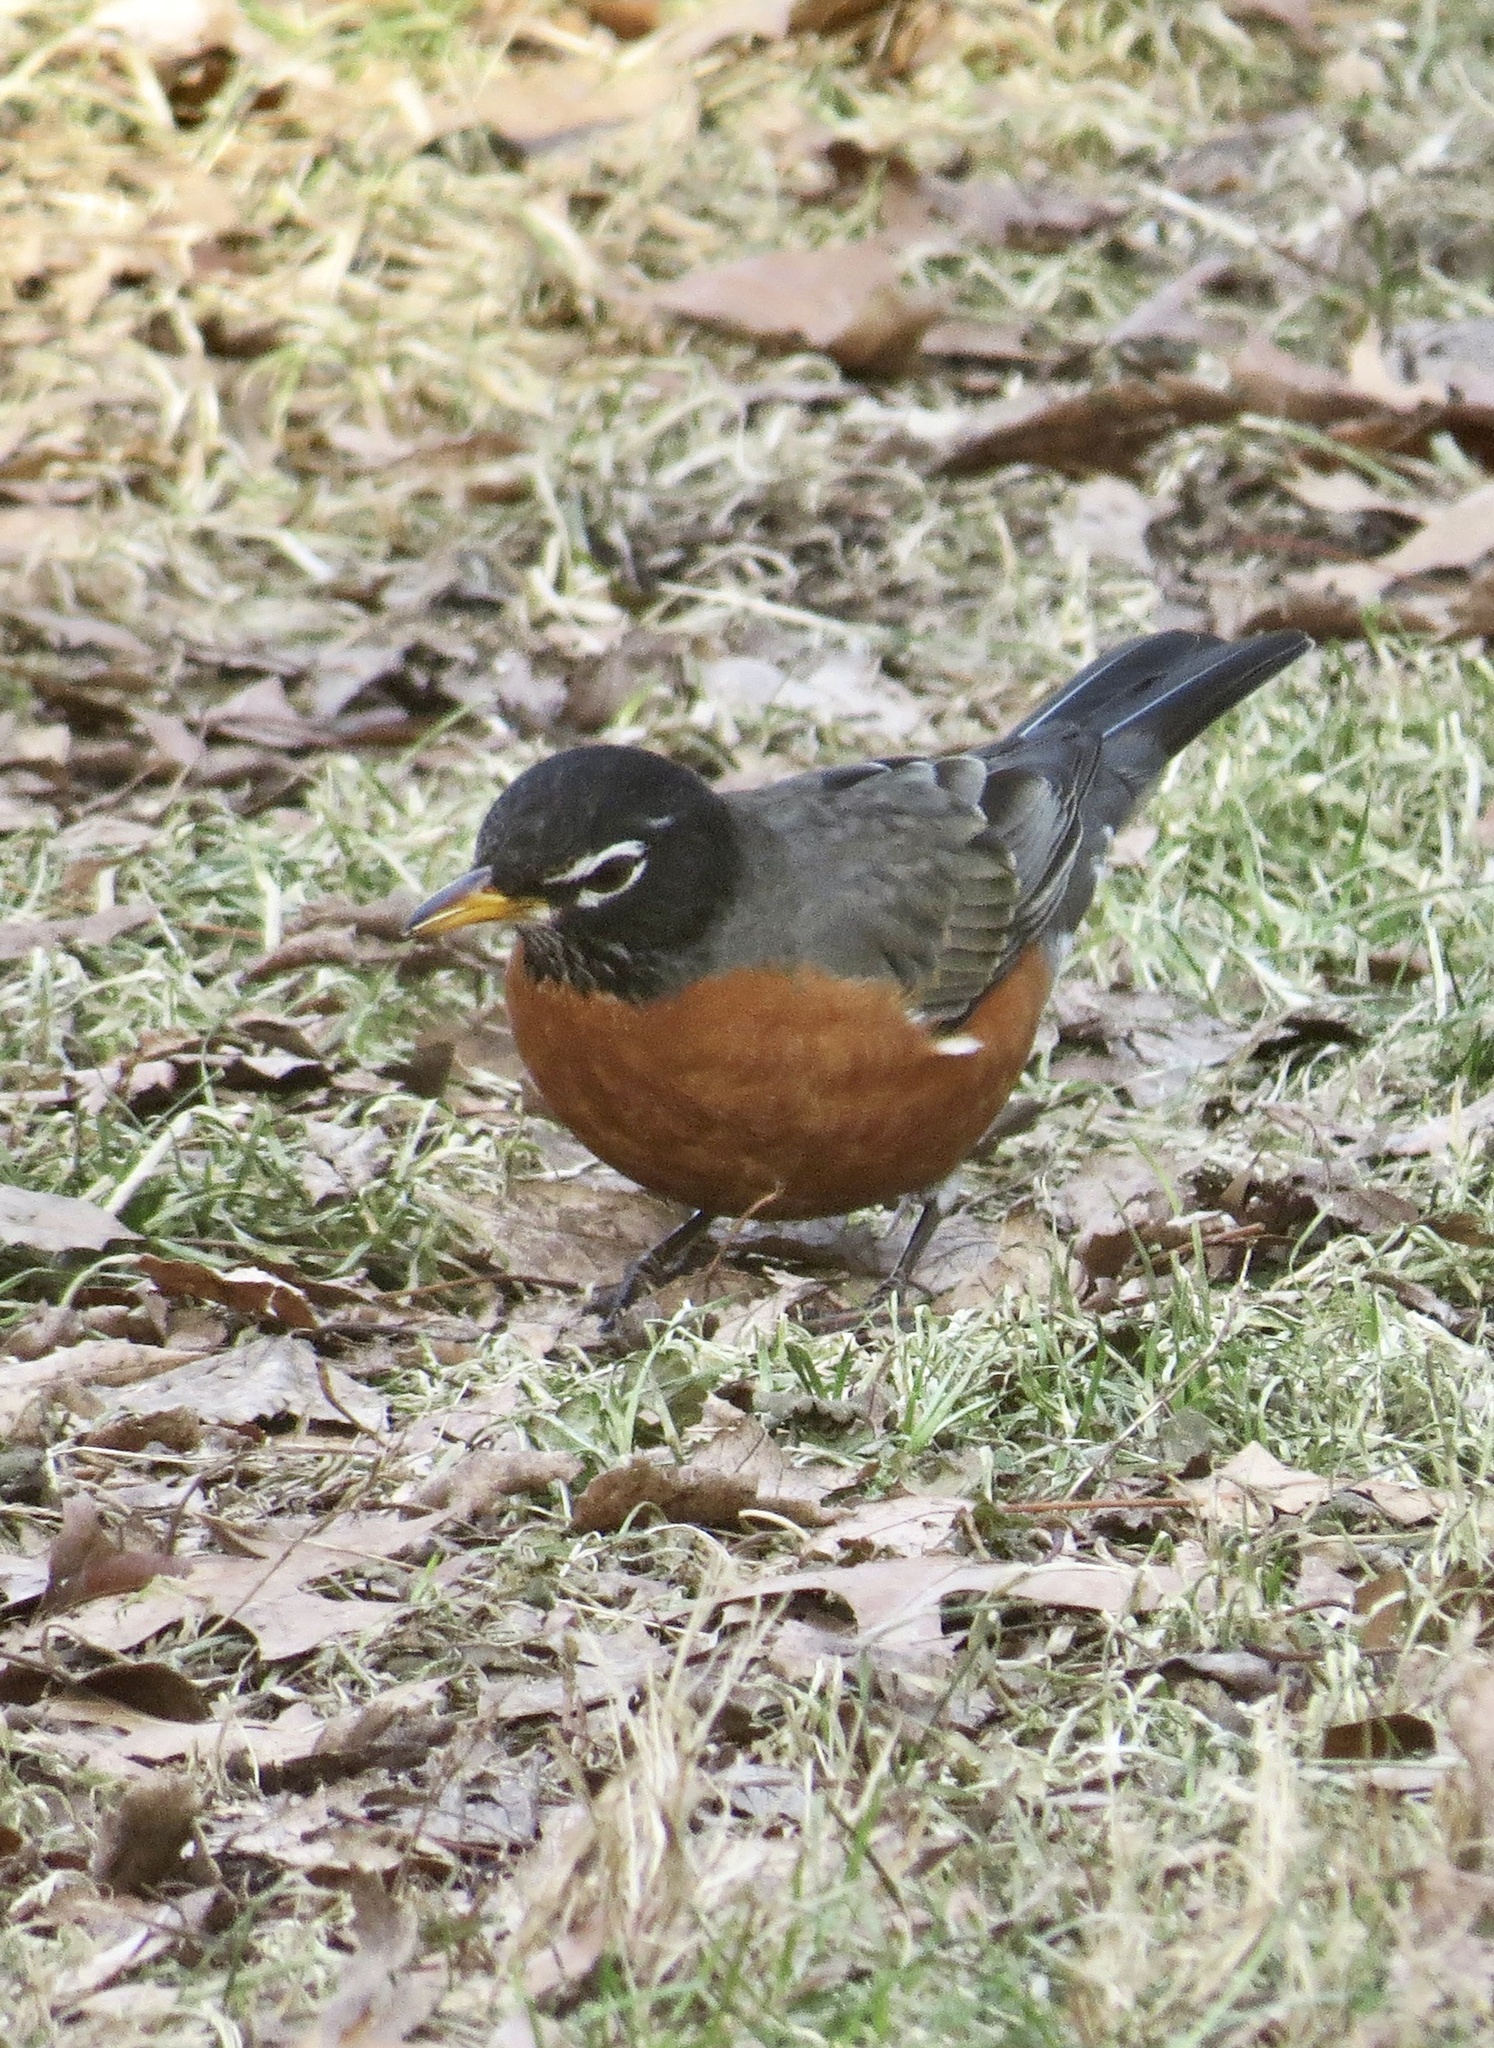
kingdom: Animalia
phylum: Chordata
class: Aves
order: Passeriformes
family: Turdidae
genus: Turdus
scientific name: Turdus migratorius
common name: American robin
